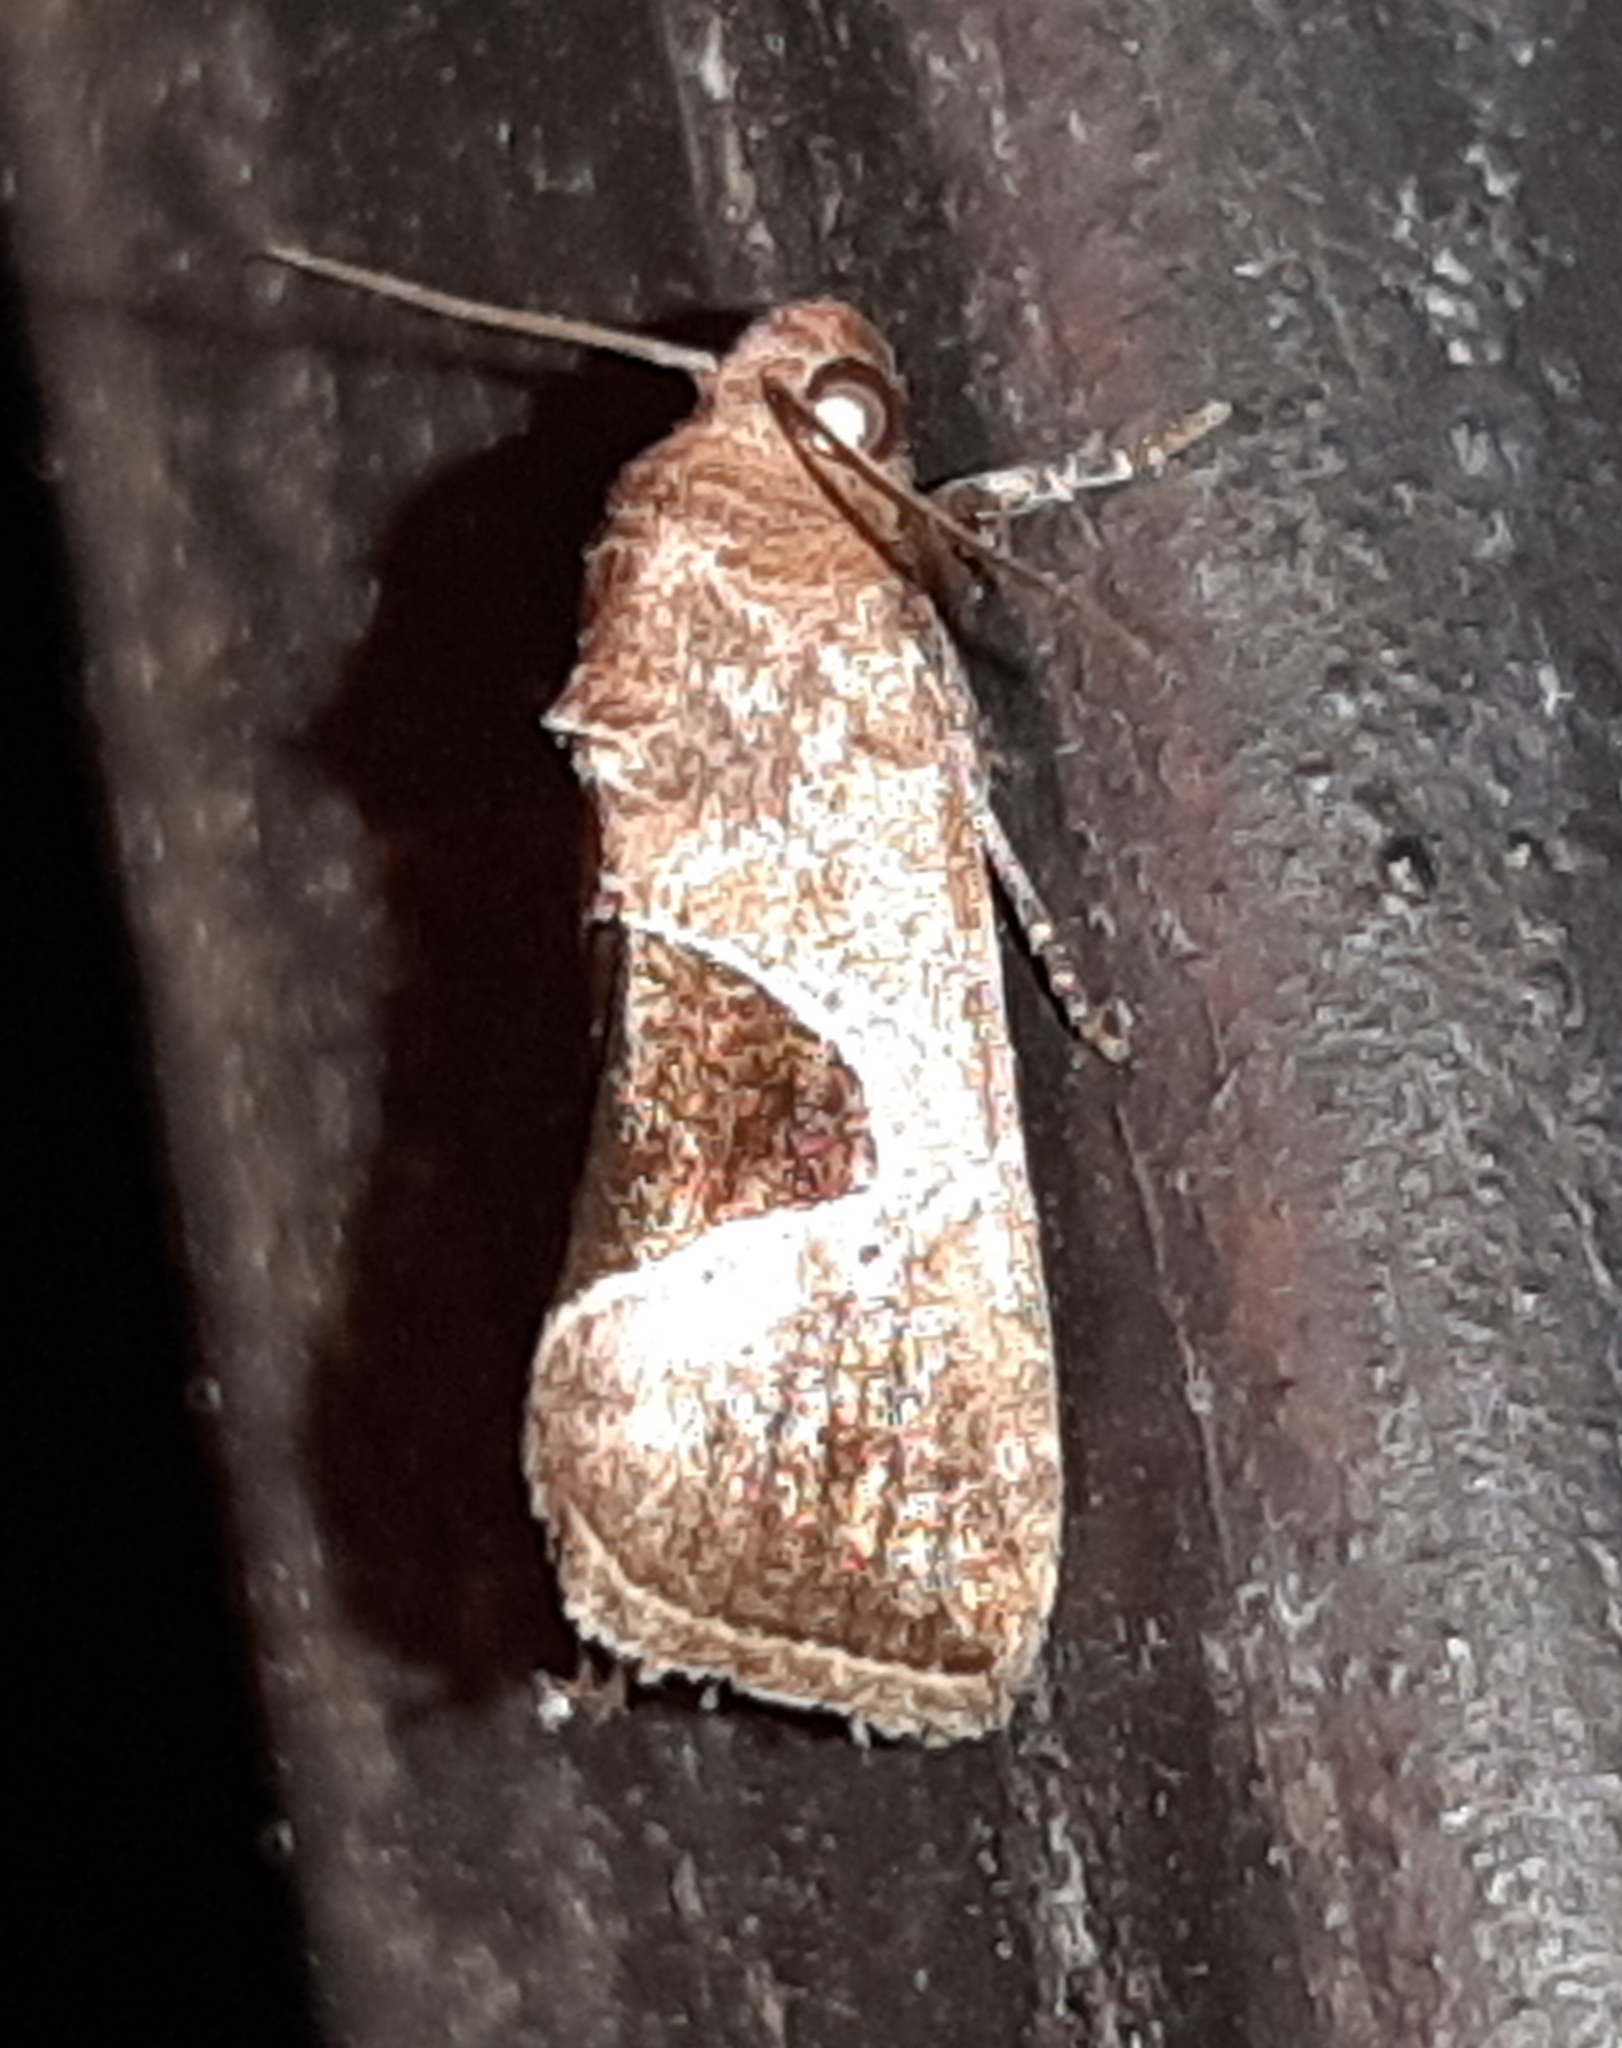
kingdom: Animalia
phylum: Arthropoda
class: Insecta
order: Lepidoptera
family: Noctuidae
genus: Elaphria
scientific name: Elaphria deltoides
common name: Cutworm moth
